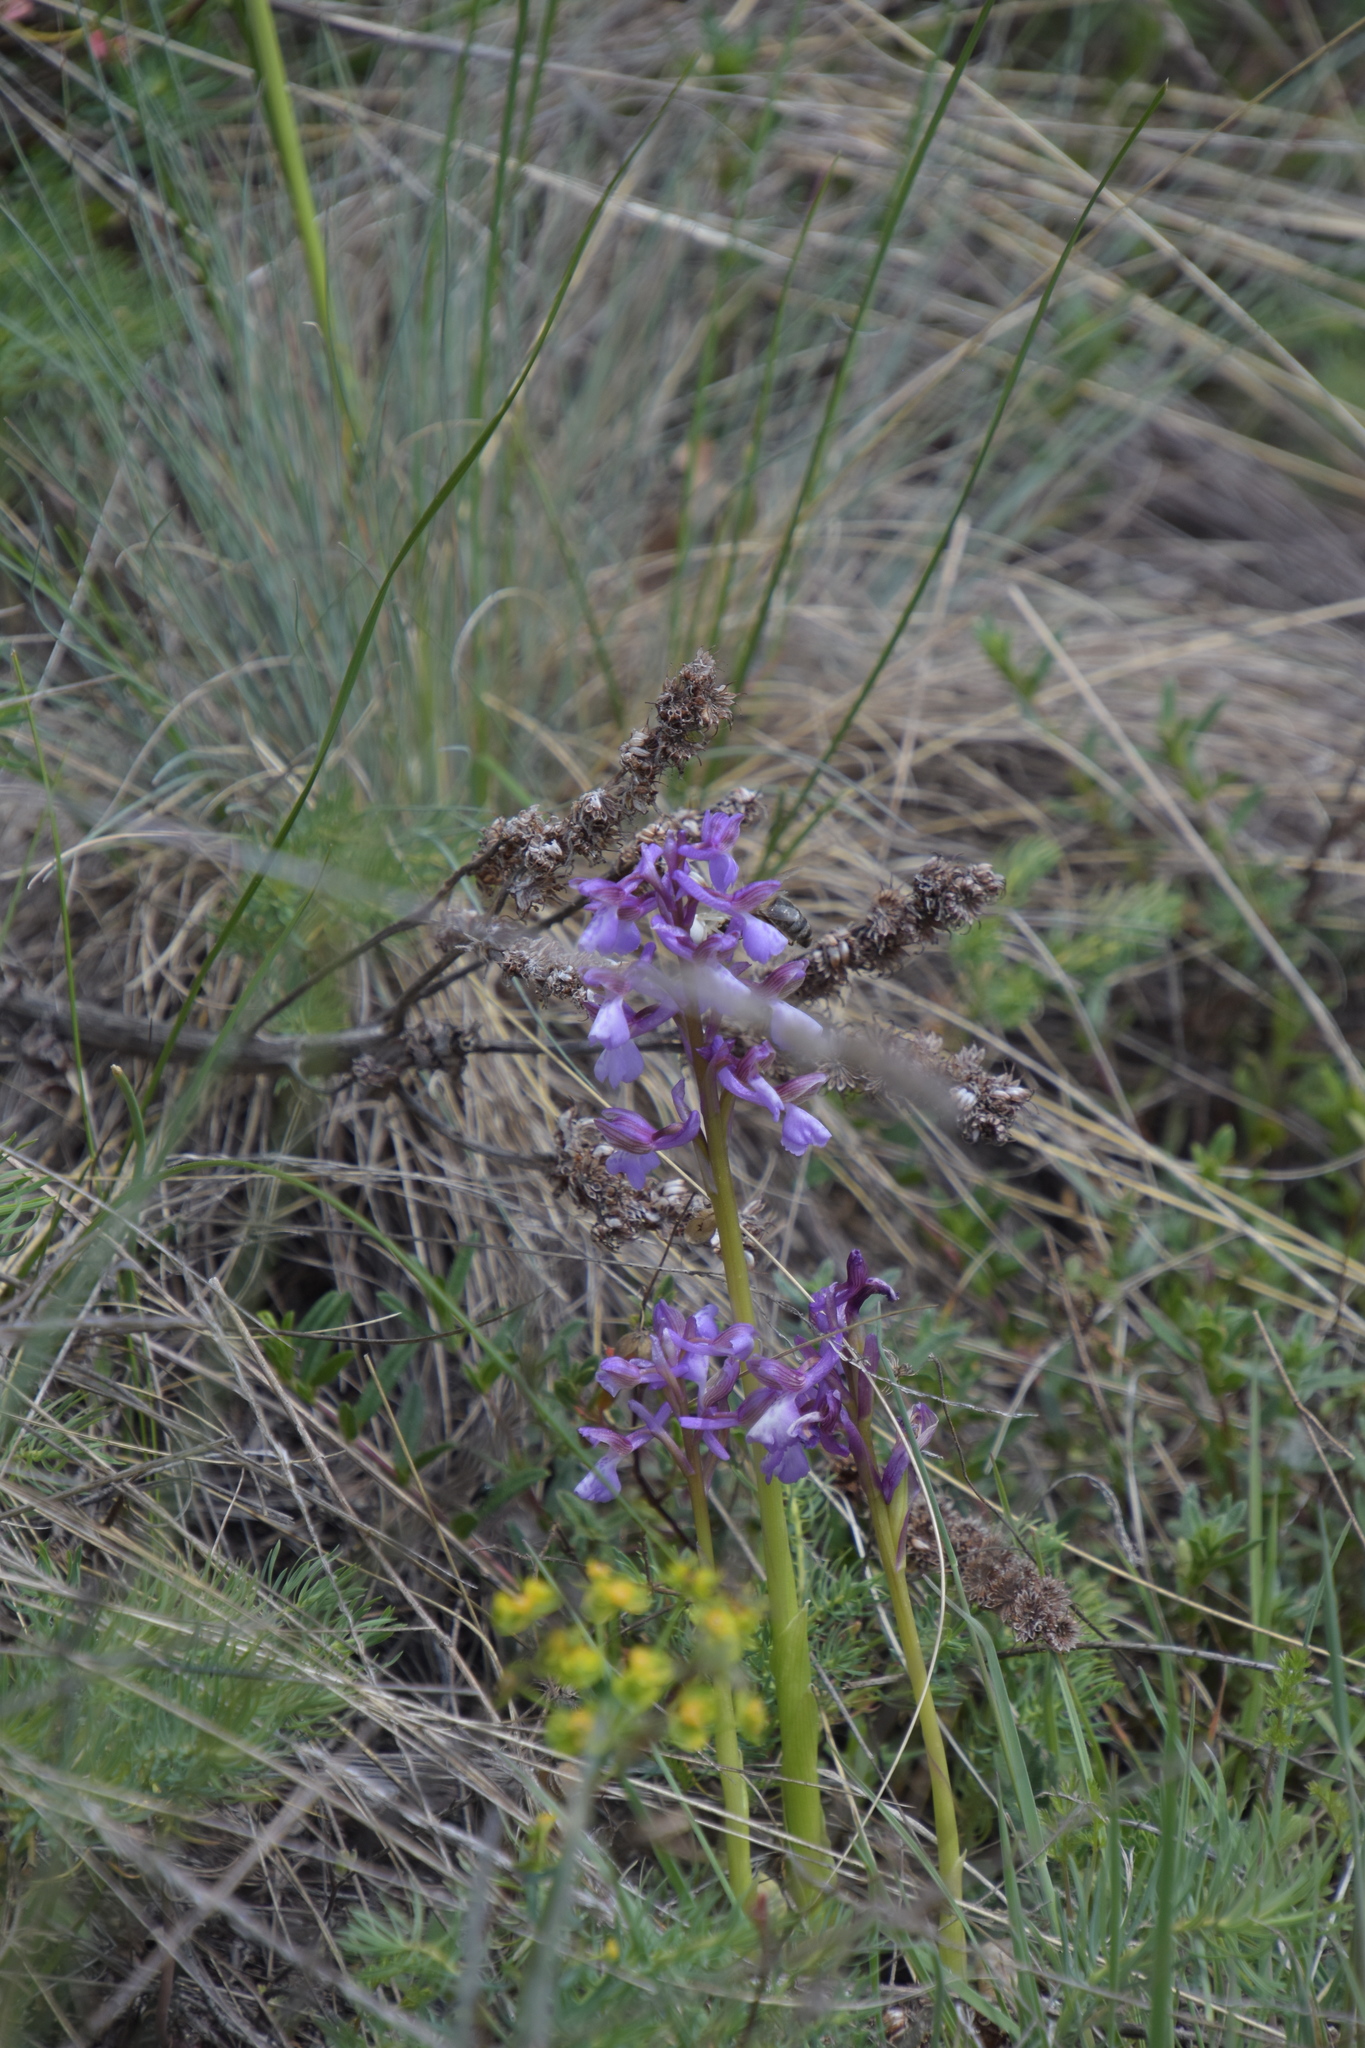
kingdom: Plantae
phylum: Tracheophyta
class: Liliopsida
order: Asparagales
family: Orchidaceae
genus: Anacamptis
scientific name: Anacamptis morio
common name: Green-winged orchid
